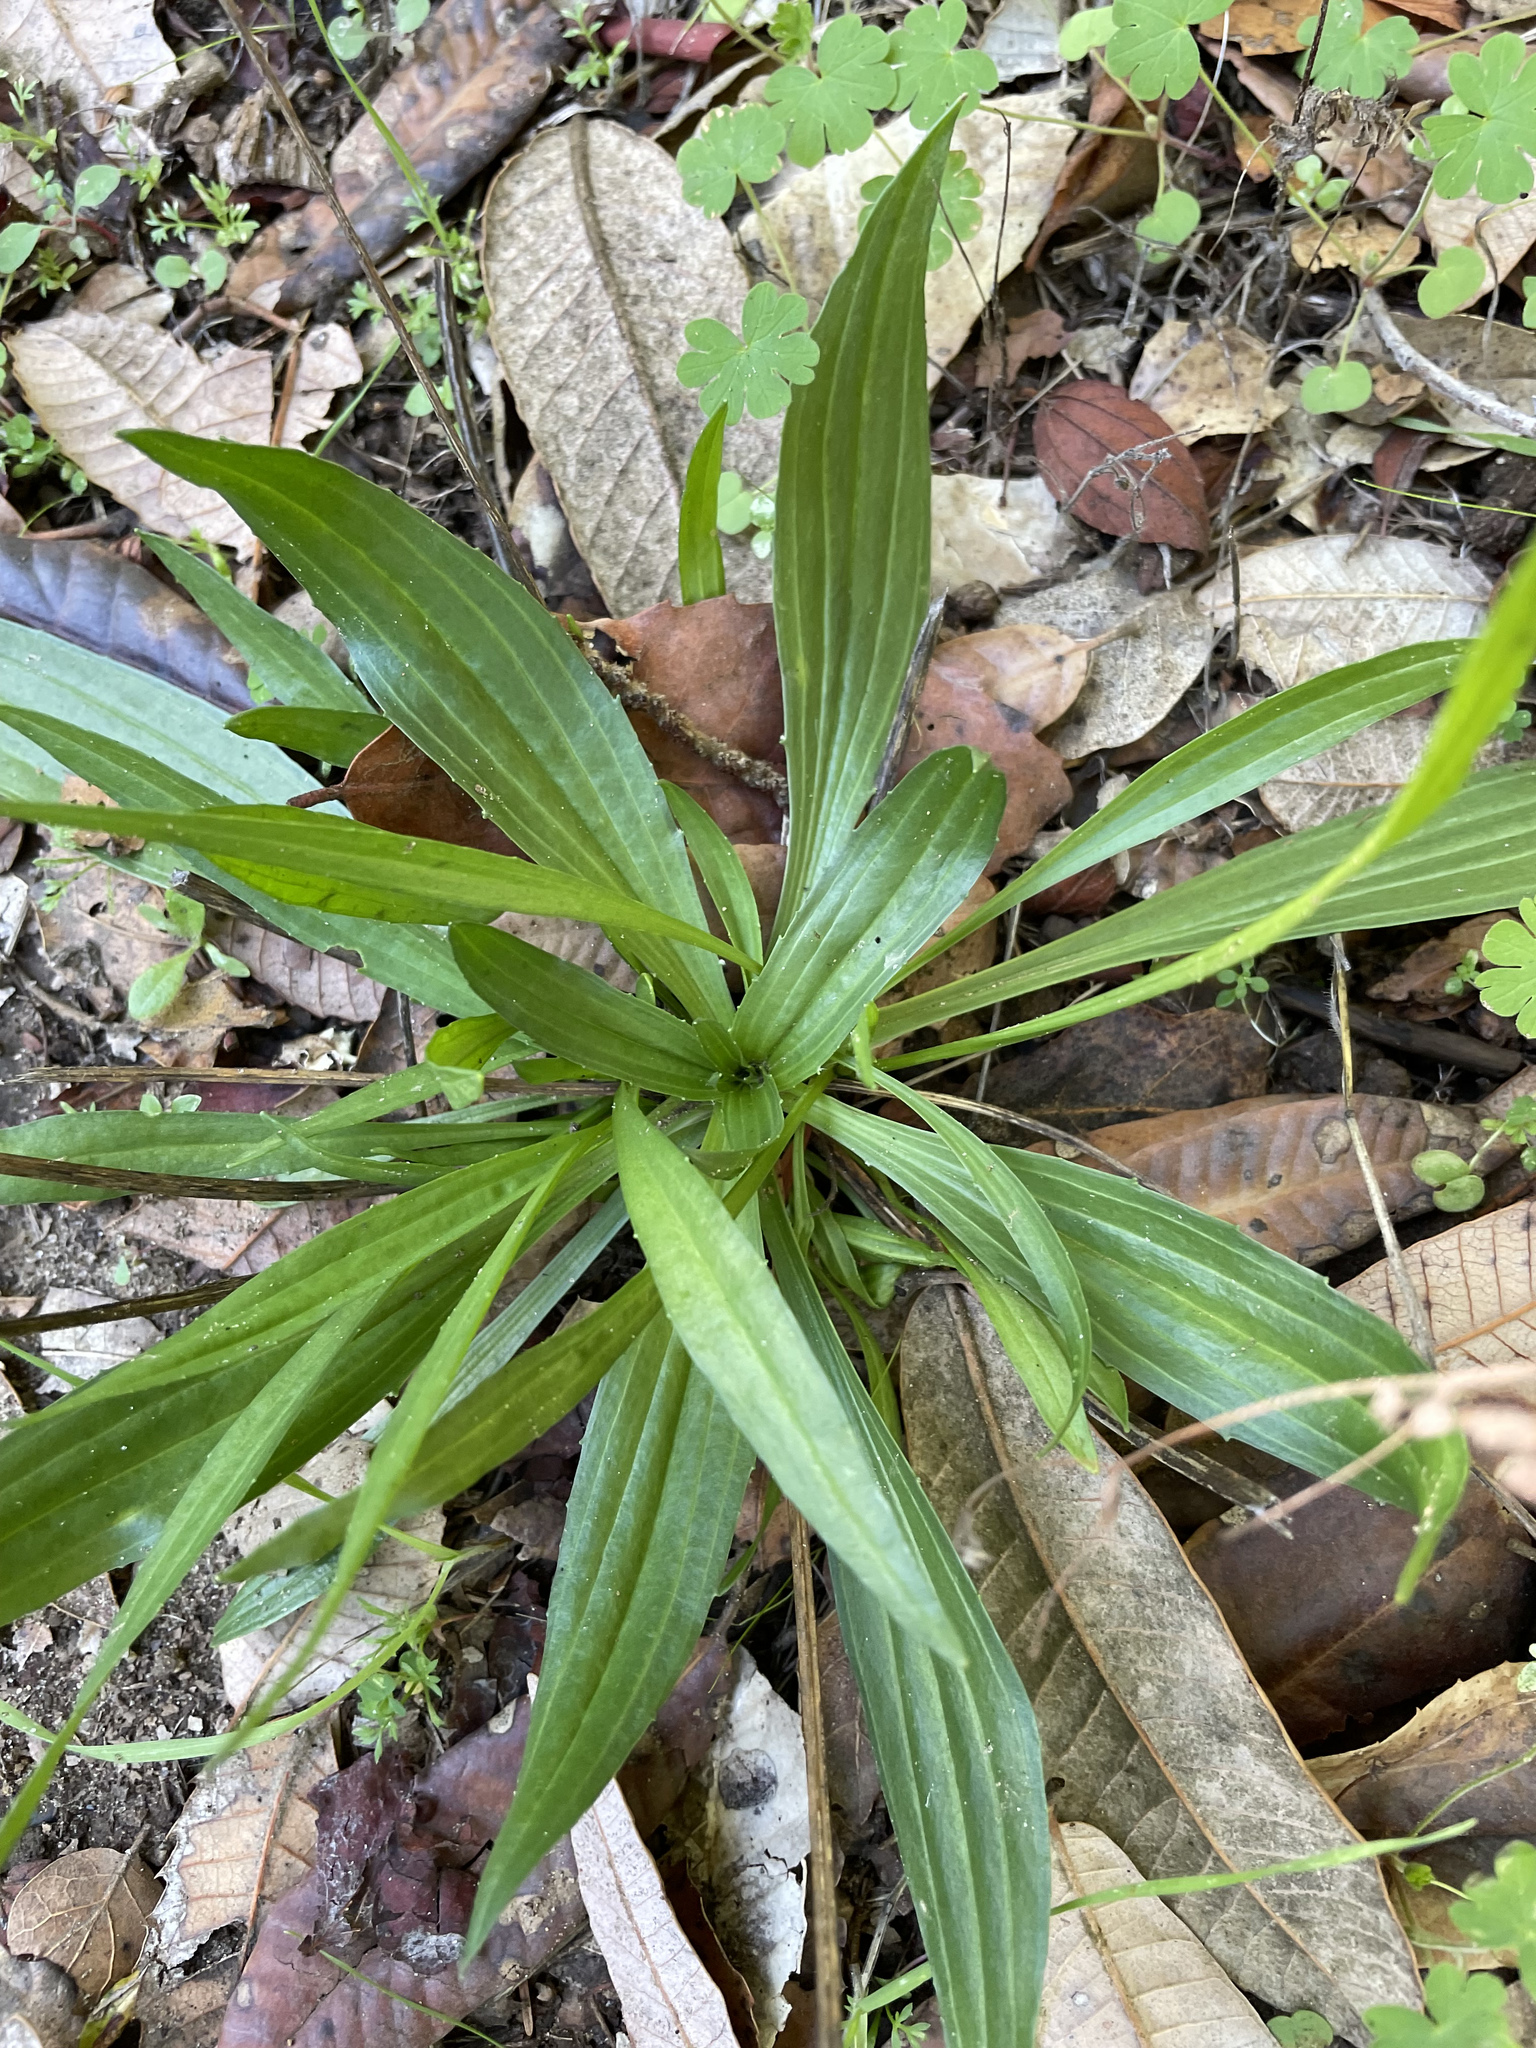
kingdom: Plantae
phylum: Tracheophyta
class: Magnoliopsida
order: Lamiales
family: Plantaginaceae
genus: Plantago
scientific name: Plantago lanceolata
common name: Ribwort plantain
